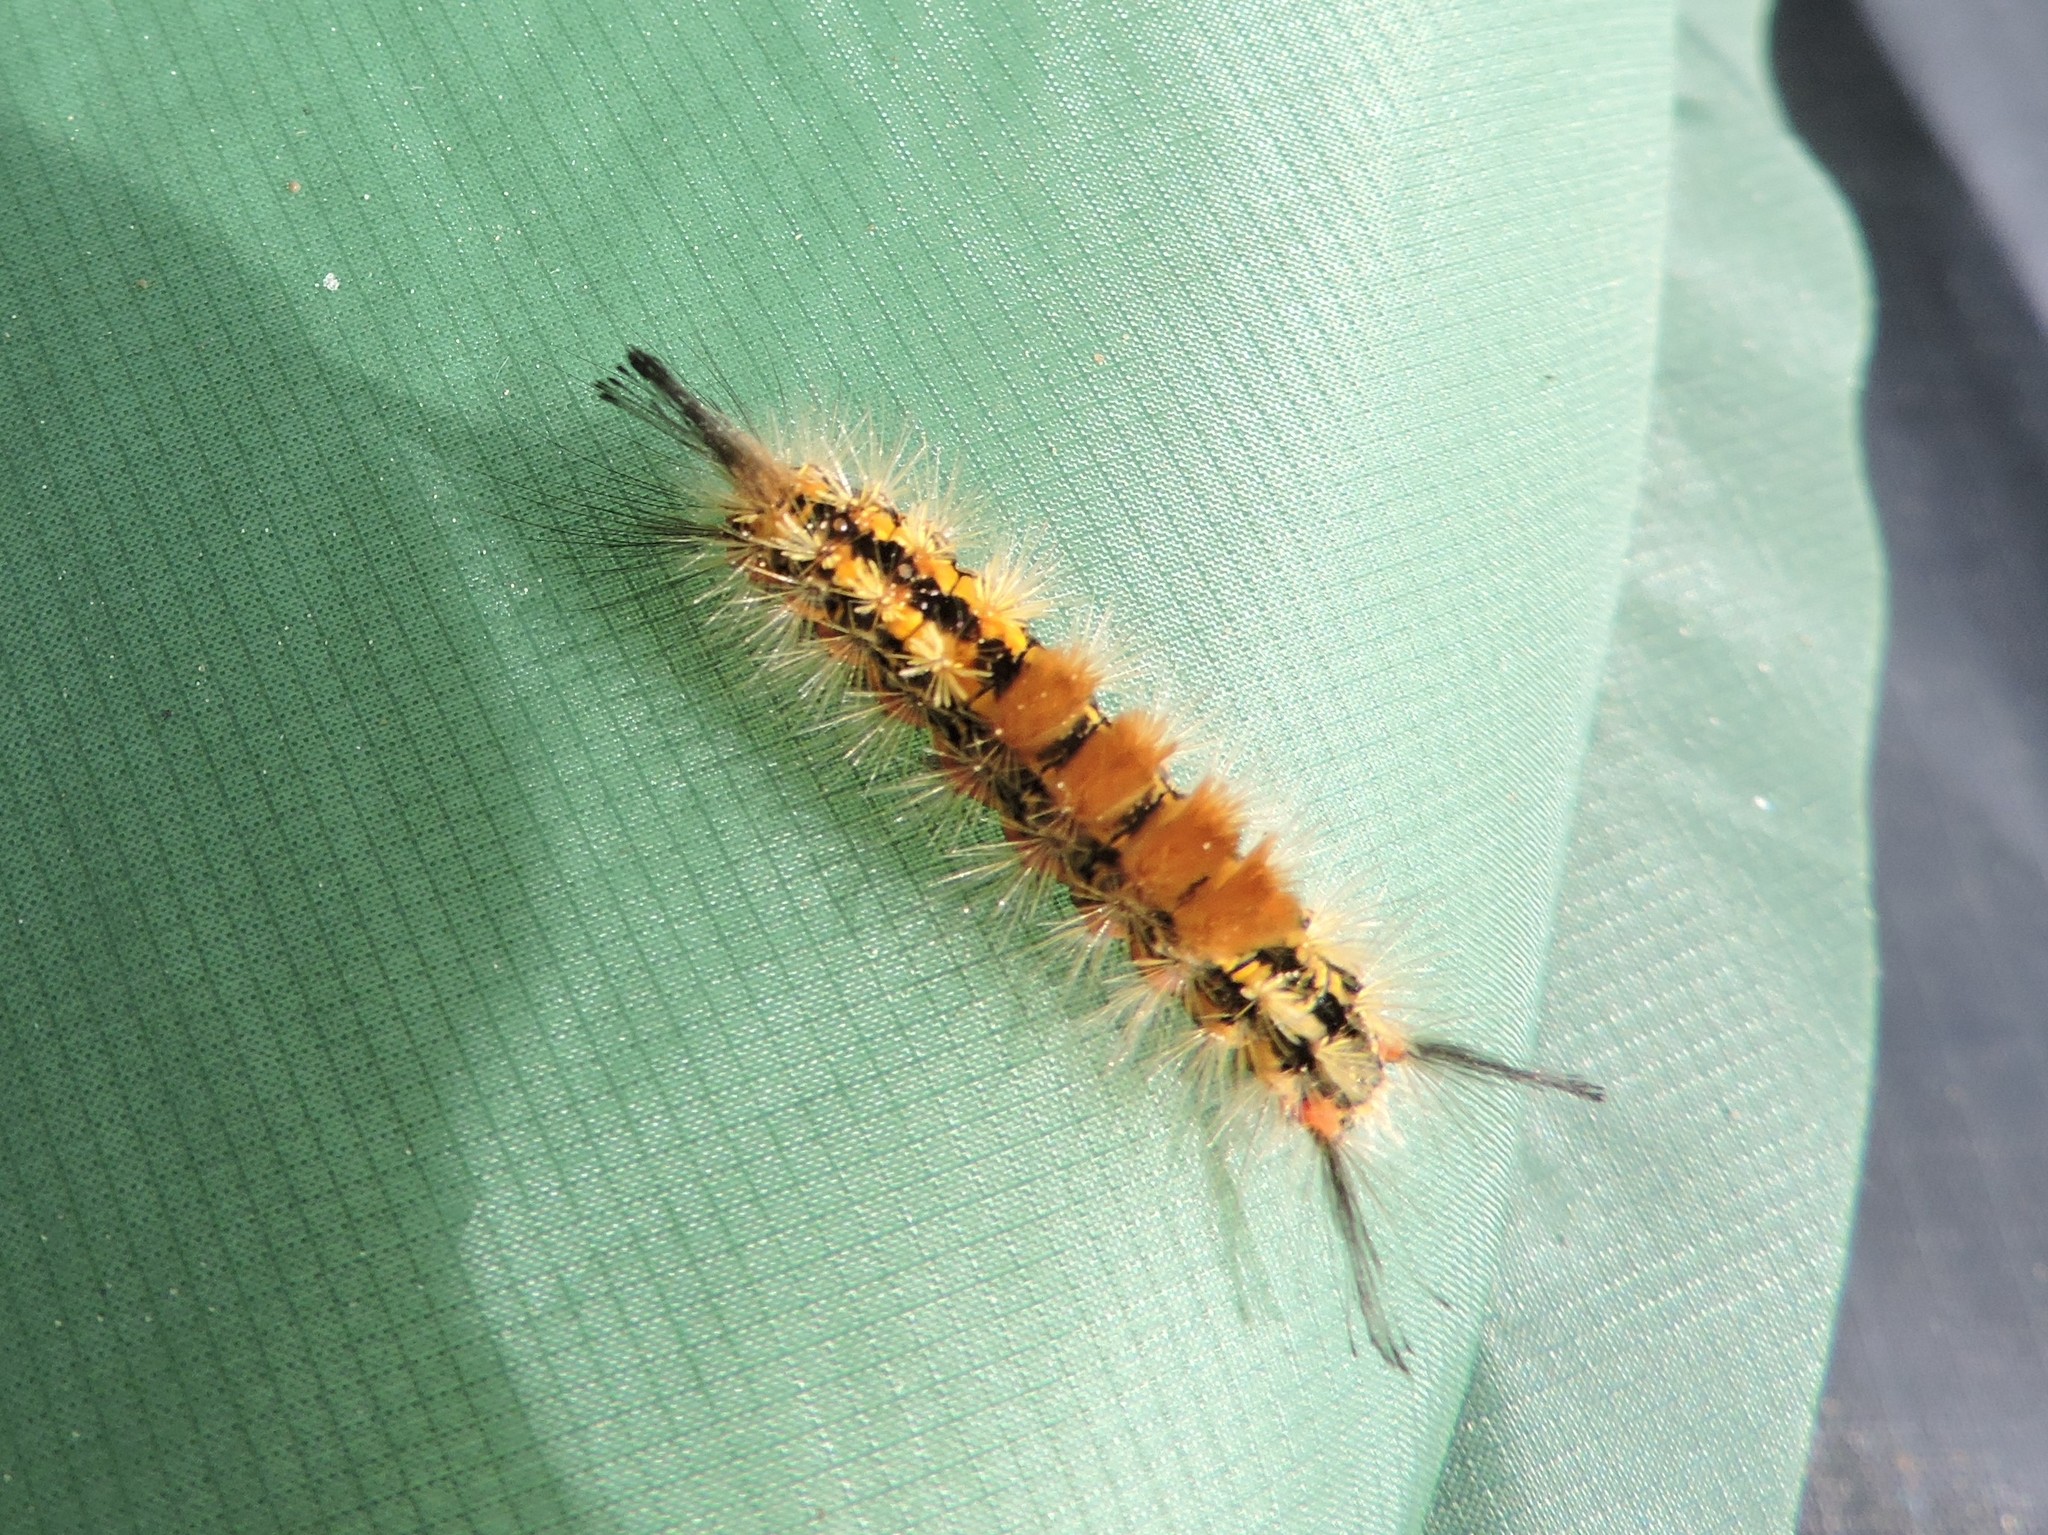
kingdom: Animalia
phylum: Arthropoda
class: Insecta
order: Lepidoptera
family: Erebidae
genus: Orgyia
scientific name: Orgyia recens
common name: Scarce vapourer
